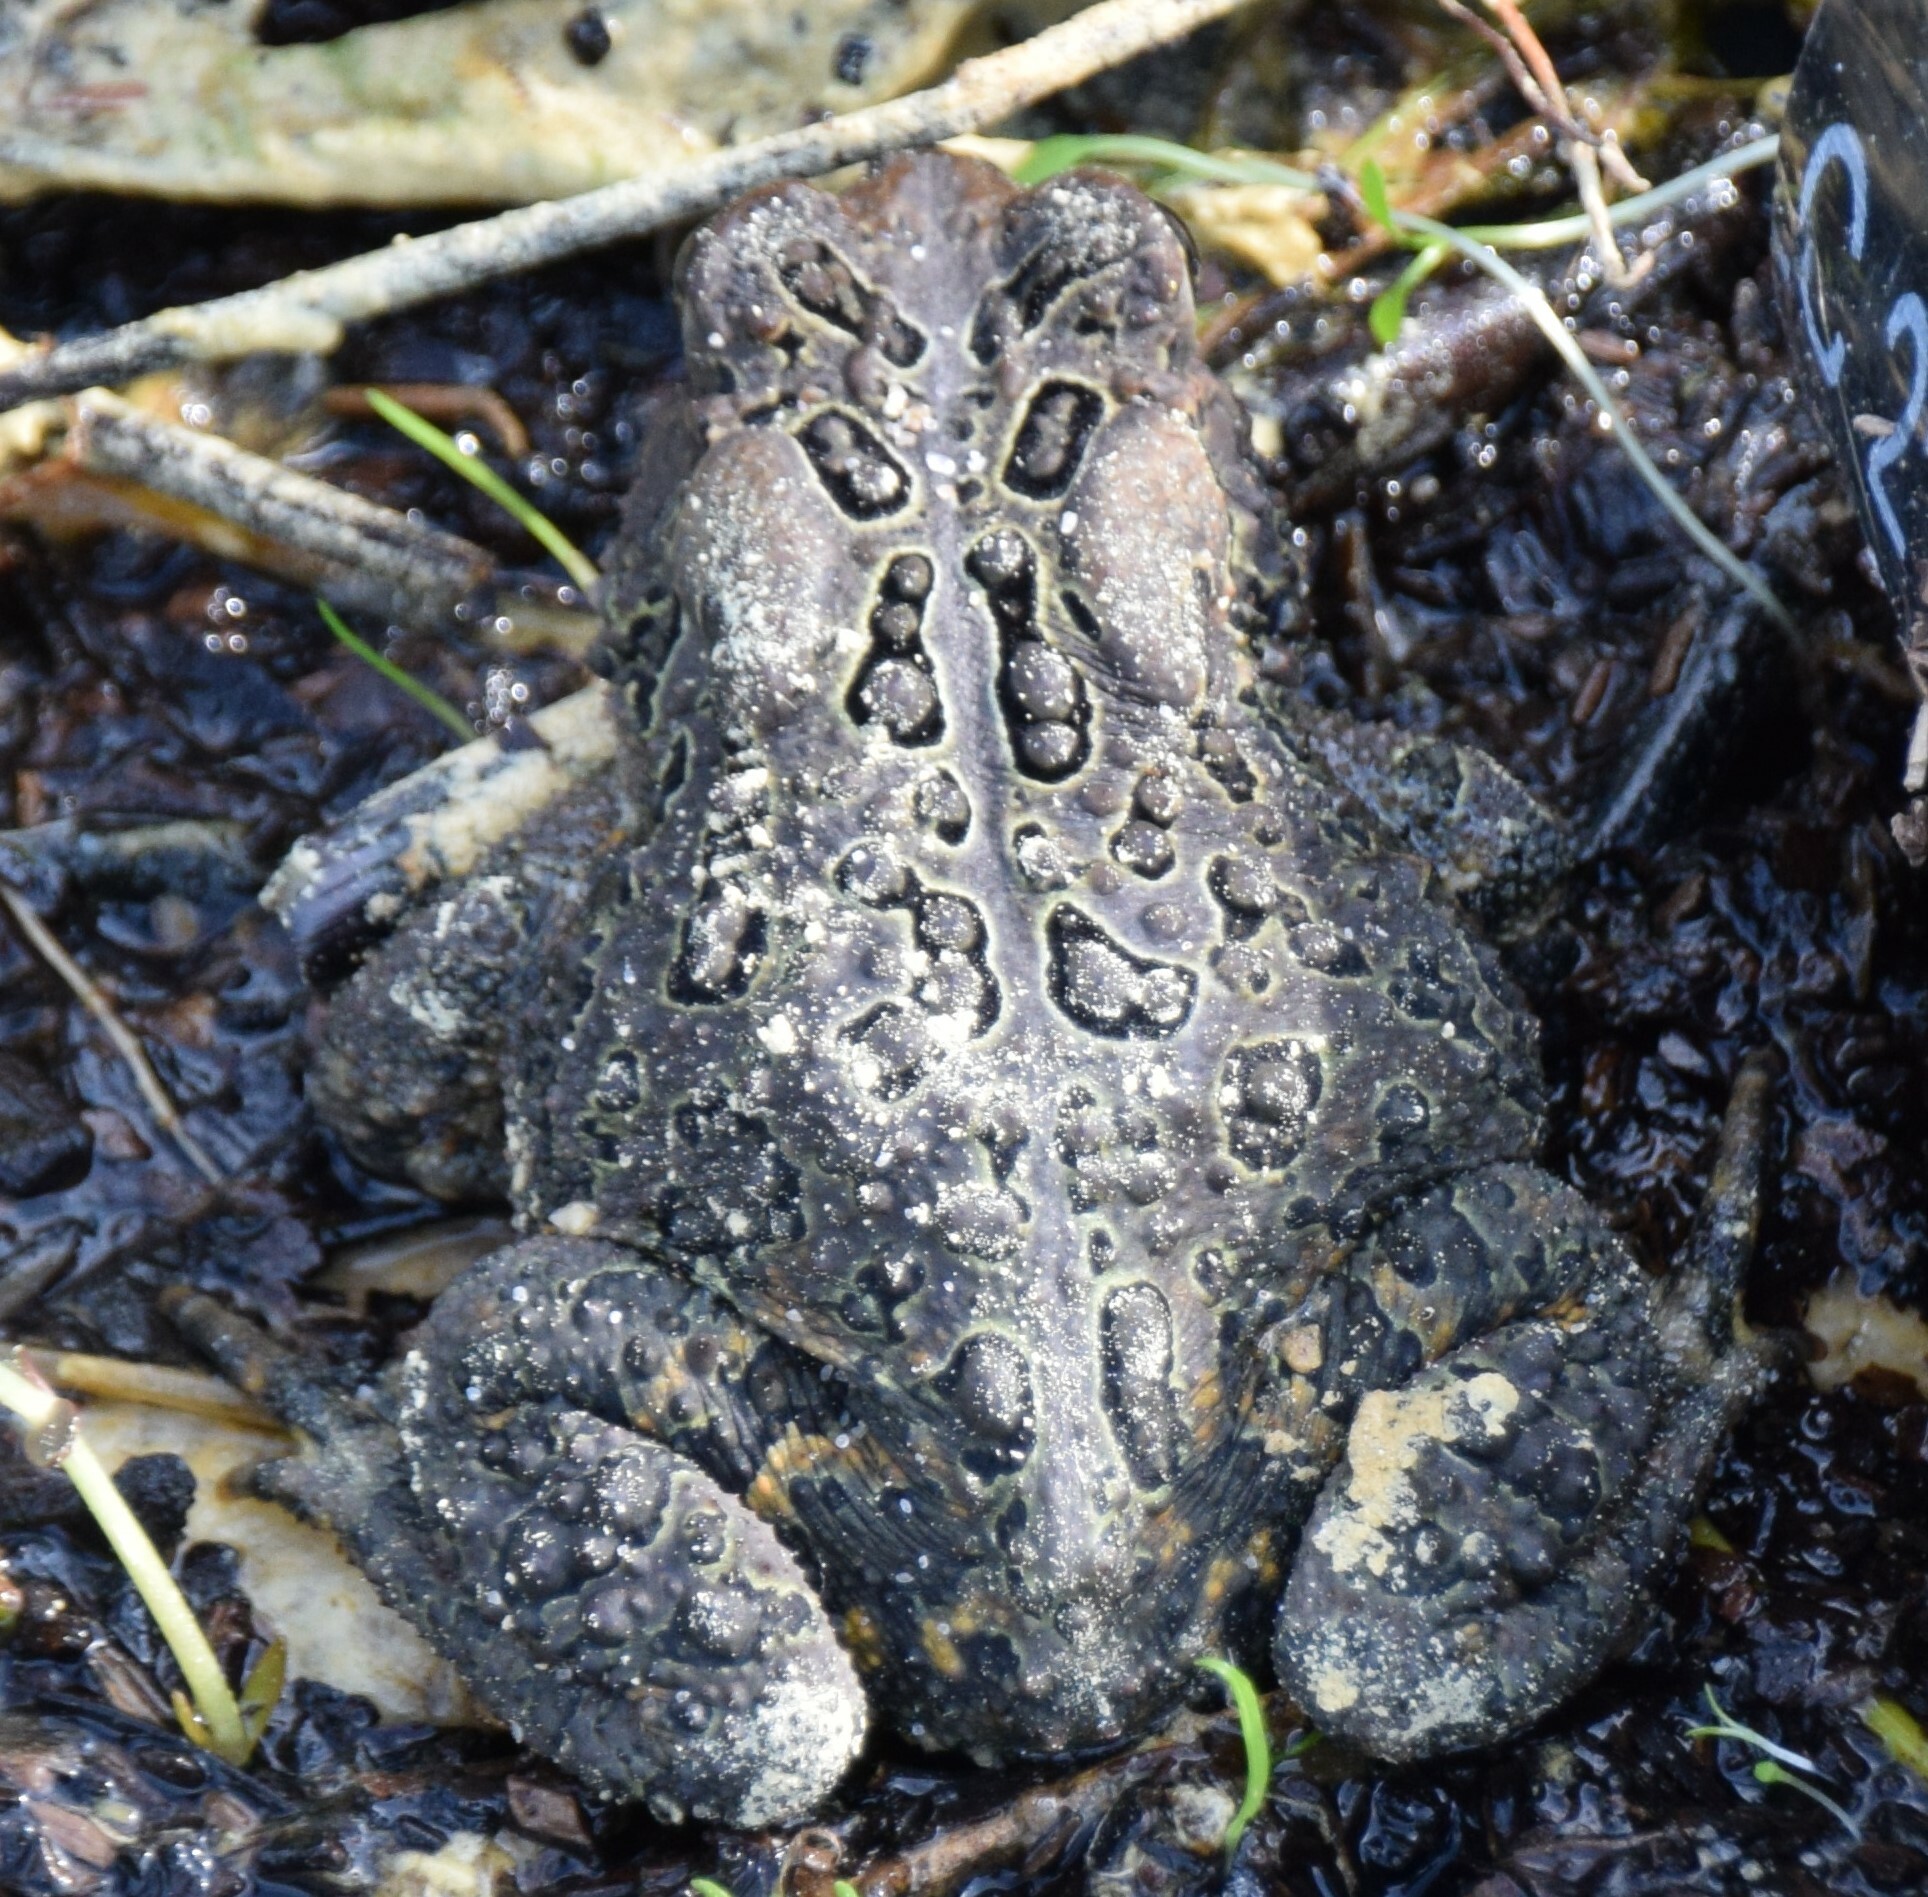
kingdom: Animalia
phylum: Chordata
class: Amphibia
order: Anura
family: Bufonidae
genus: Anaxyrus
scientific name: Anaxyrus americanus
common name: American toad
